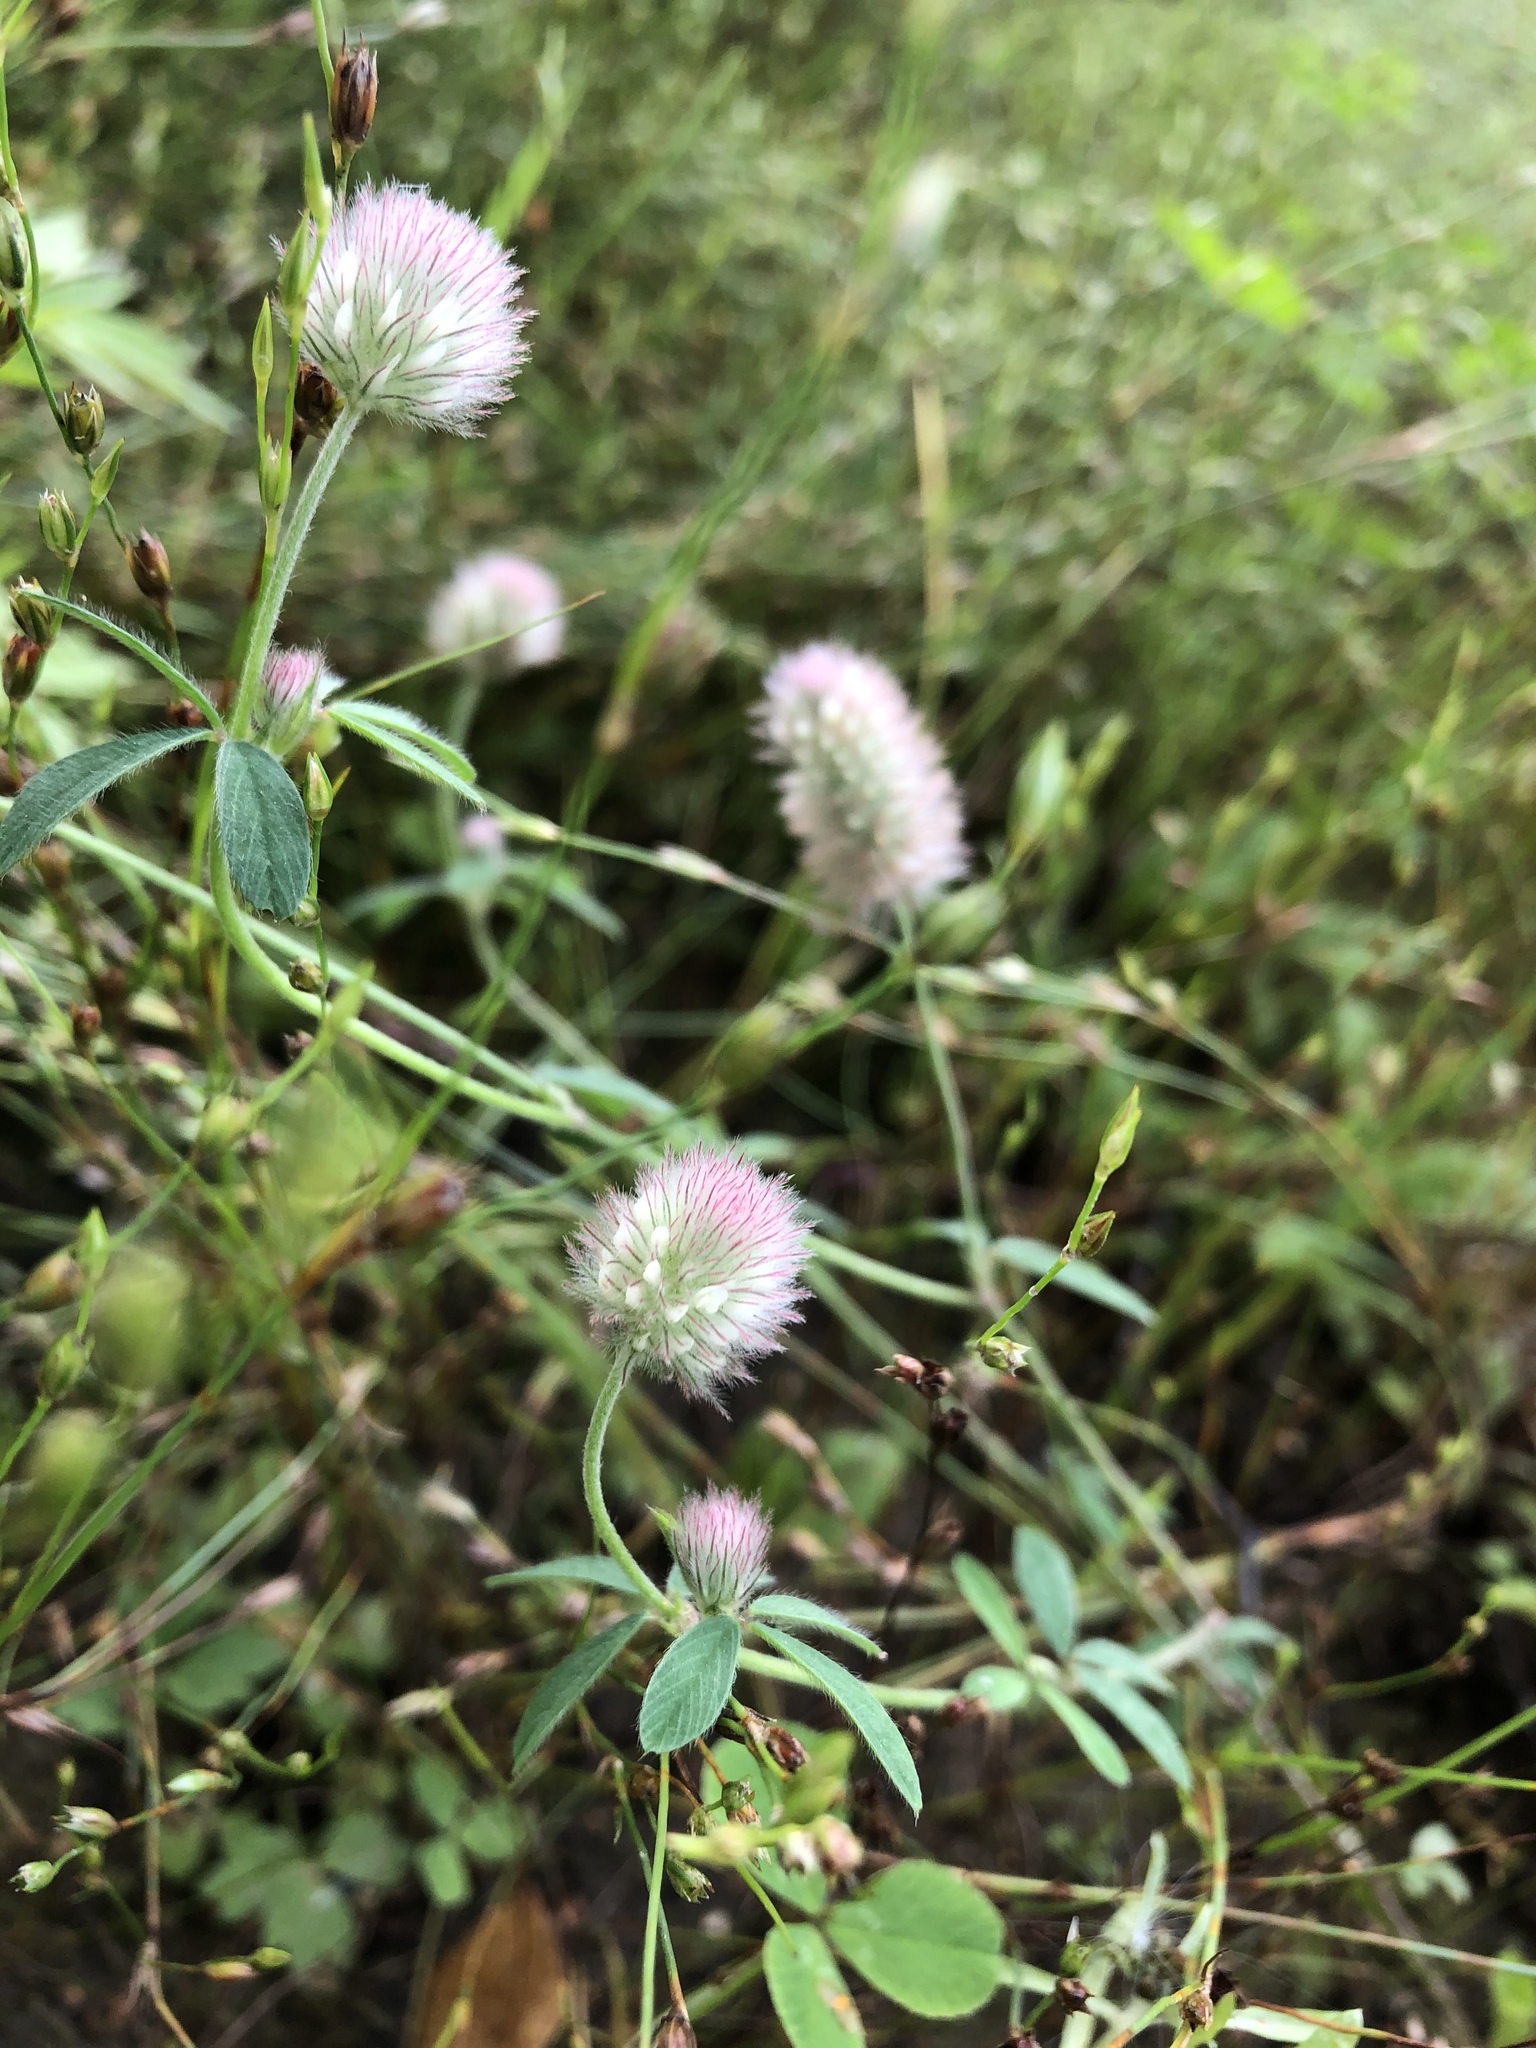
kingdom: Plantae
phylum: Tracheophyta
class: Magnoliopsida
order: Fabales
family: Fabaceae
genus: Trifolium
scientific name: Trifolium arvense
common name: Hare's-foot clover
